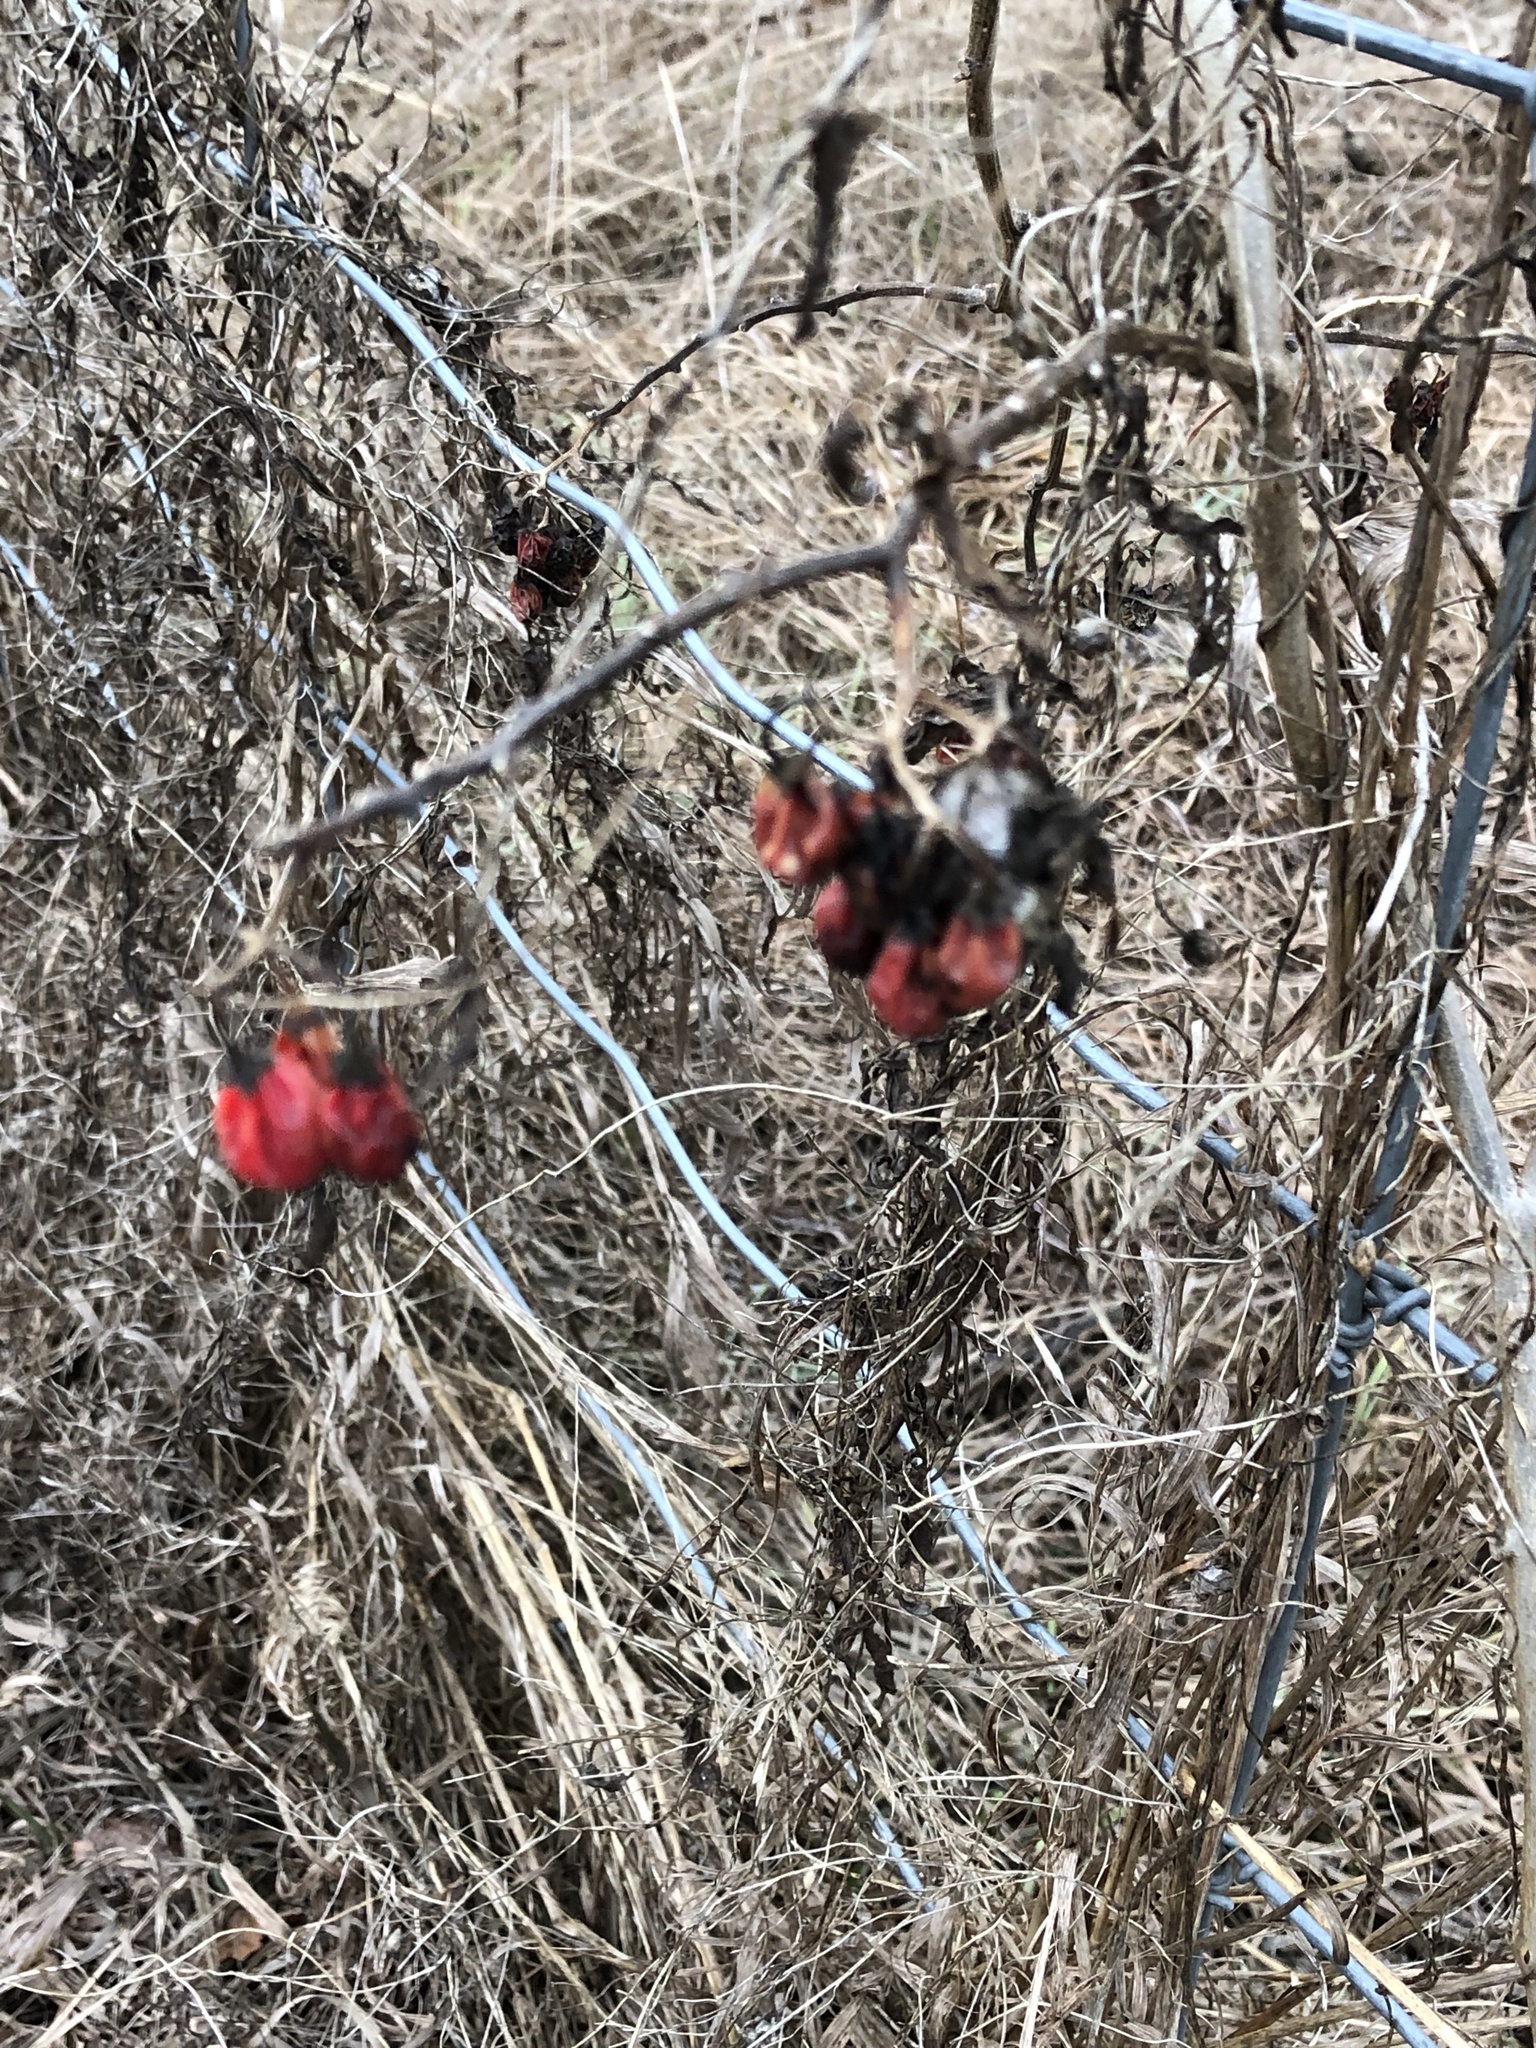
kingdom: Plantae
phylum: Tracheophyta
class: Magnoliopsida
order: Solanales
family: Solanaceae
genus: Solanum
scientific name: Solanum dulcamara
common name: Climbing nightshade
